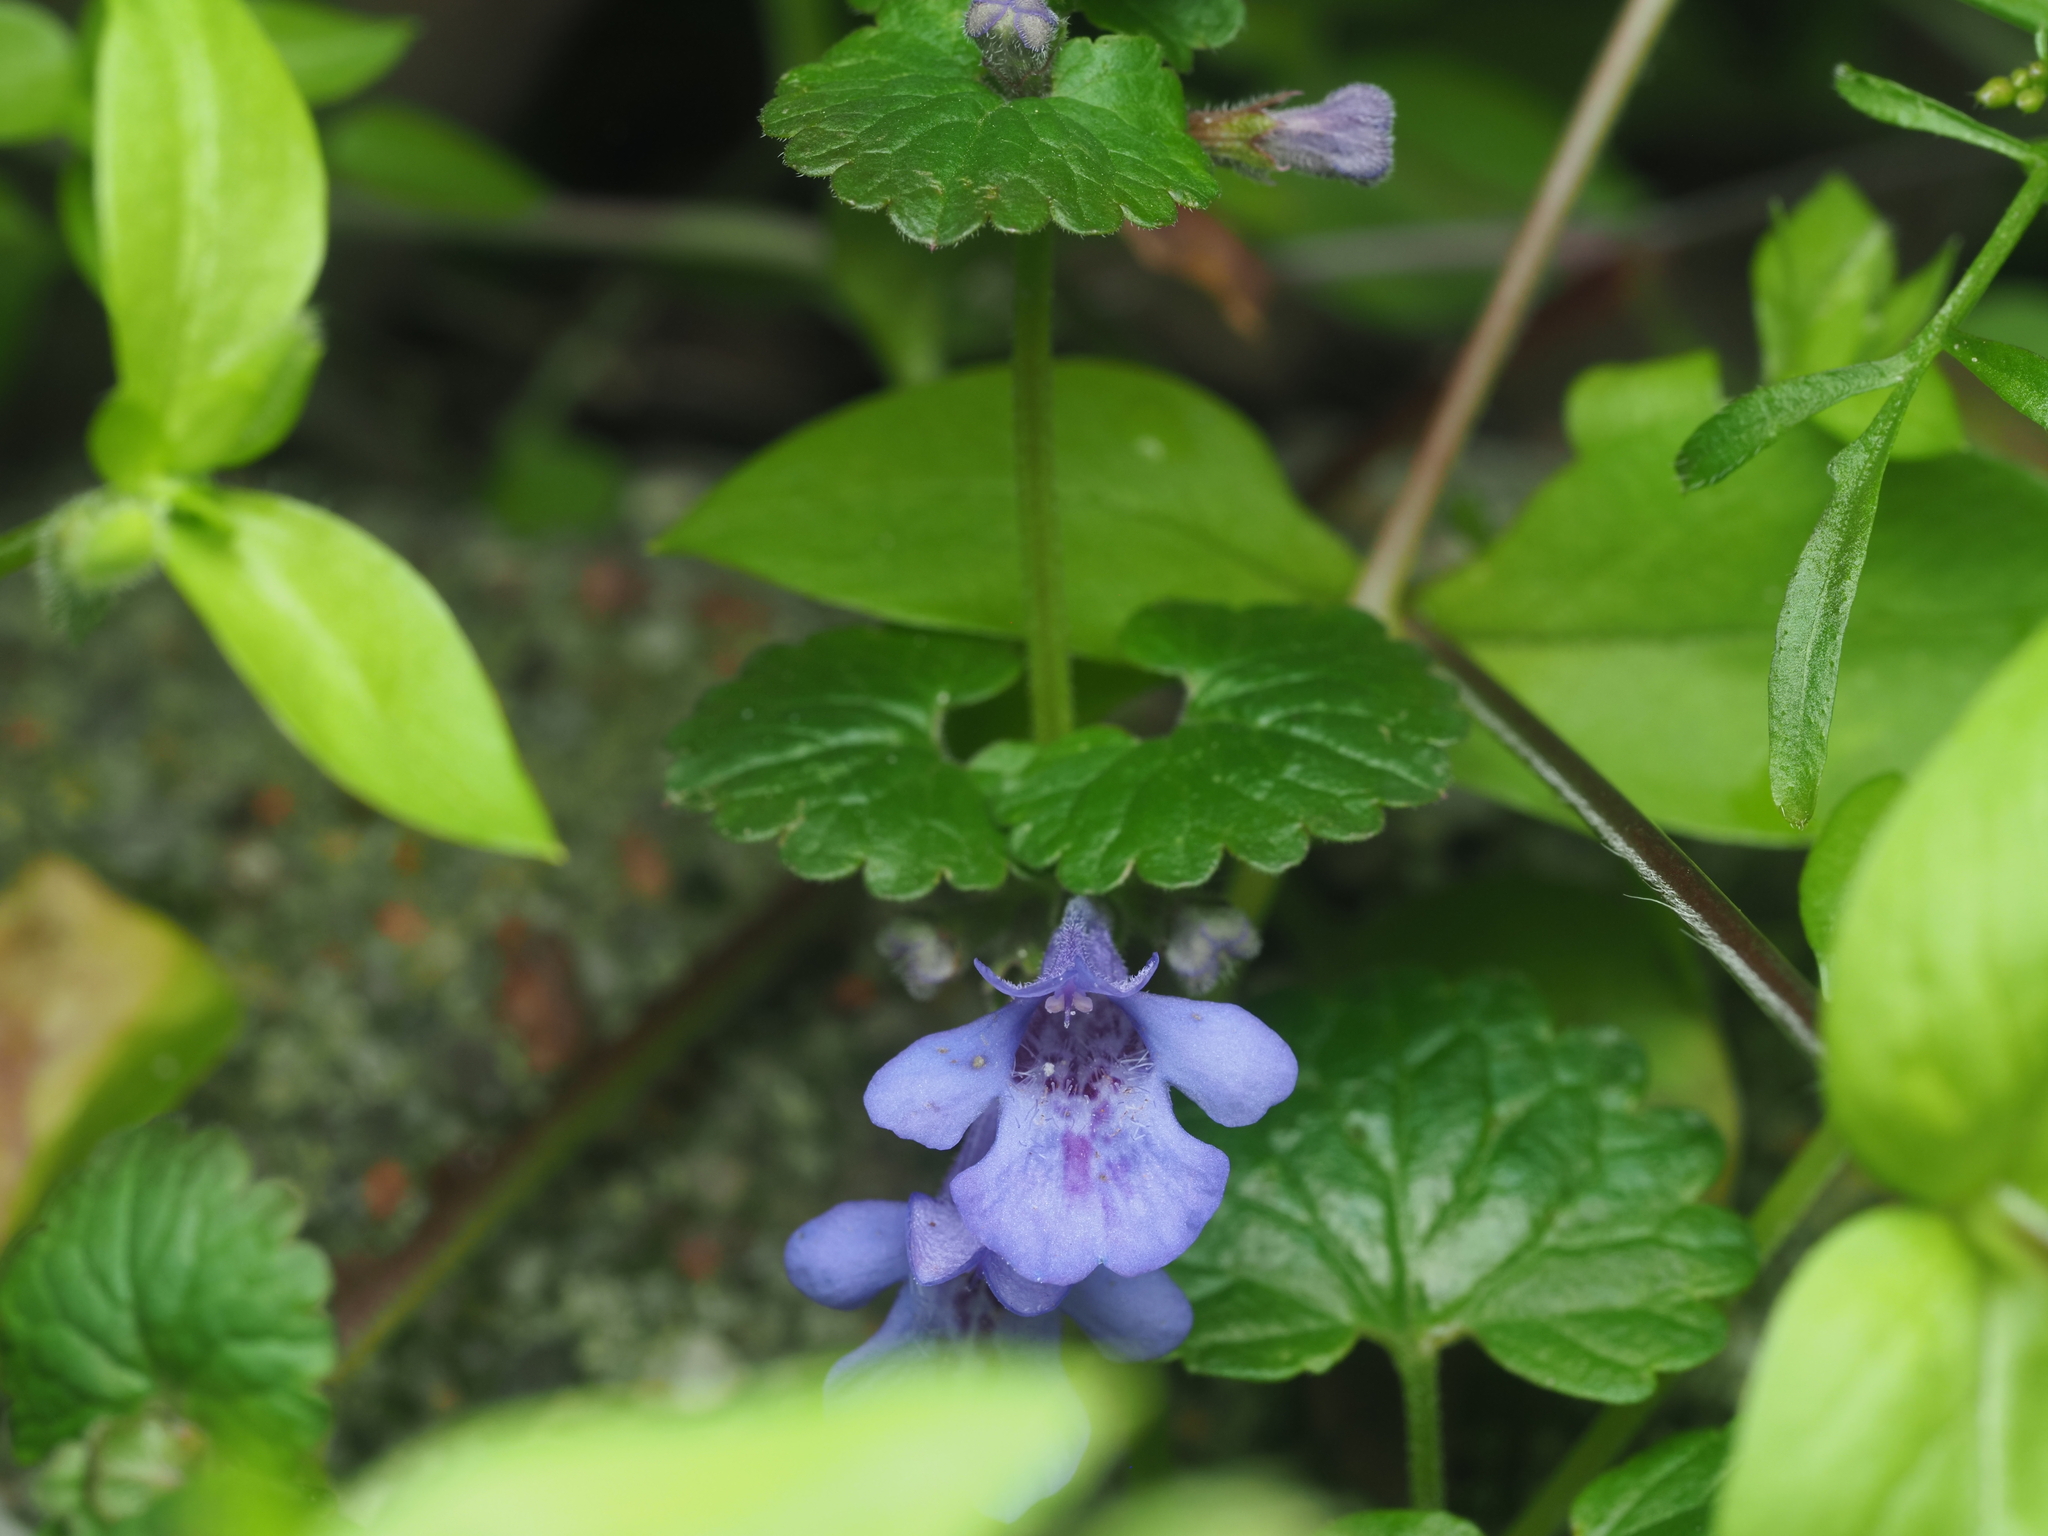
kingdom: Plantae
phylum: Tracheophyta
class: Magnoliopsida
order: Lamiales
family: Lamiaceae
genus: Glechoma
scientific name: Glechoma hederacea
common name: Ground ivy
